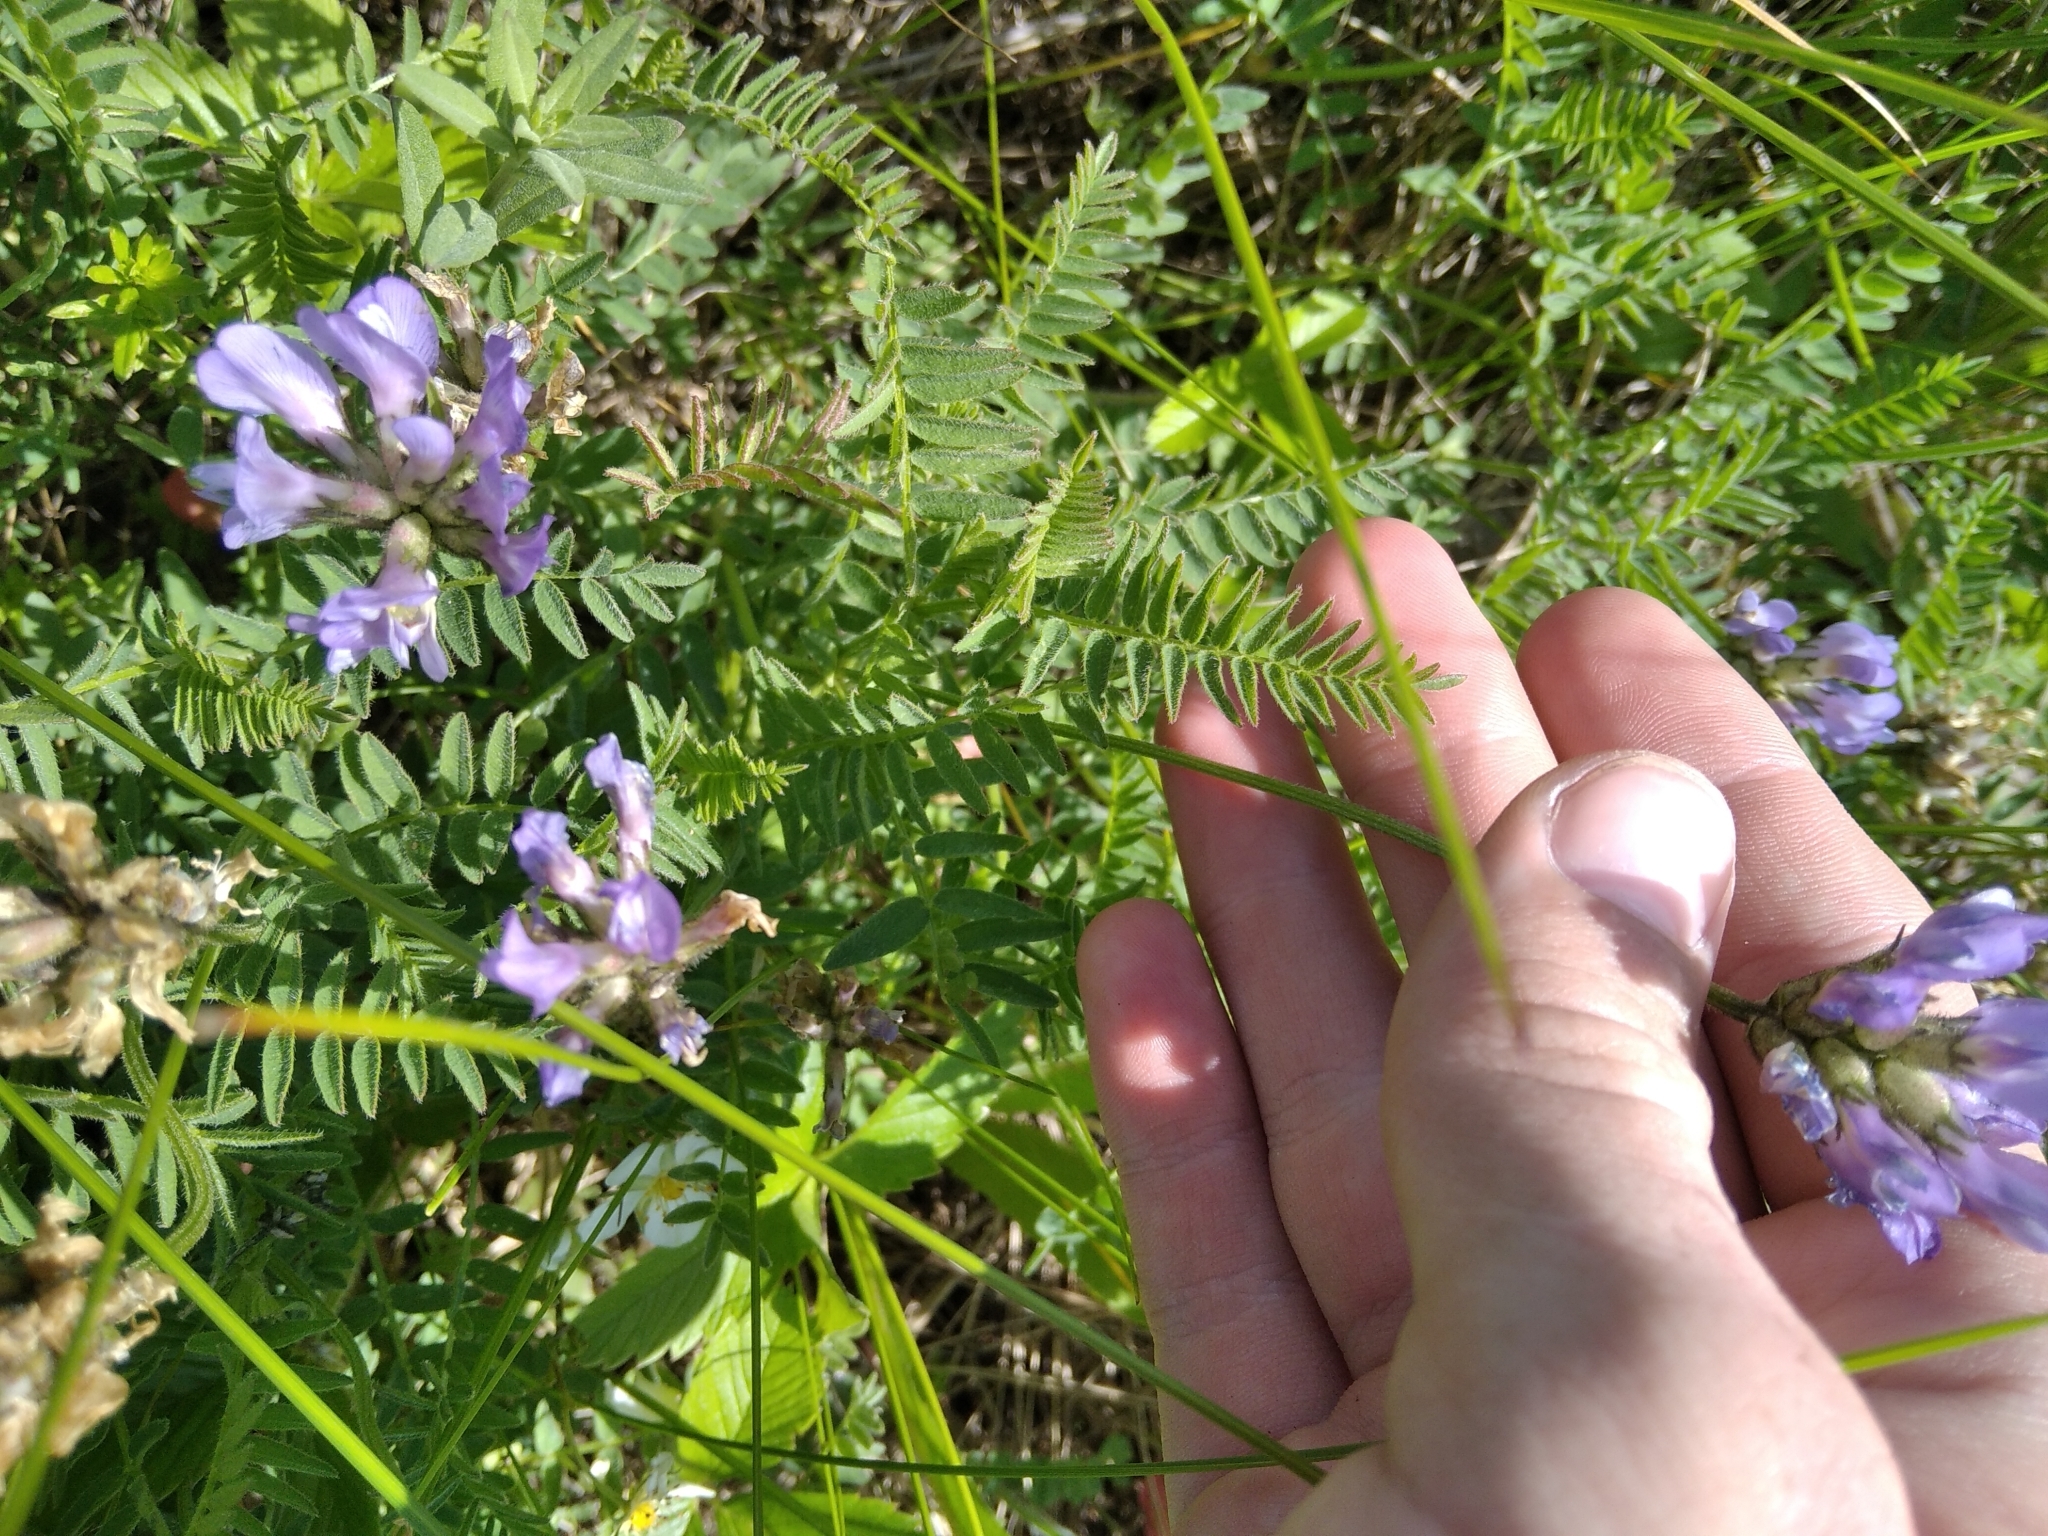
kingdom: Plantae
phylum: Tracheophyta
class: Magnoliopsida
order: Fabales
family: Fabaceae
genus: Astragalus
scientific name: Astragalus danicus
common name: Purple milk-vetch
